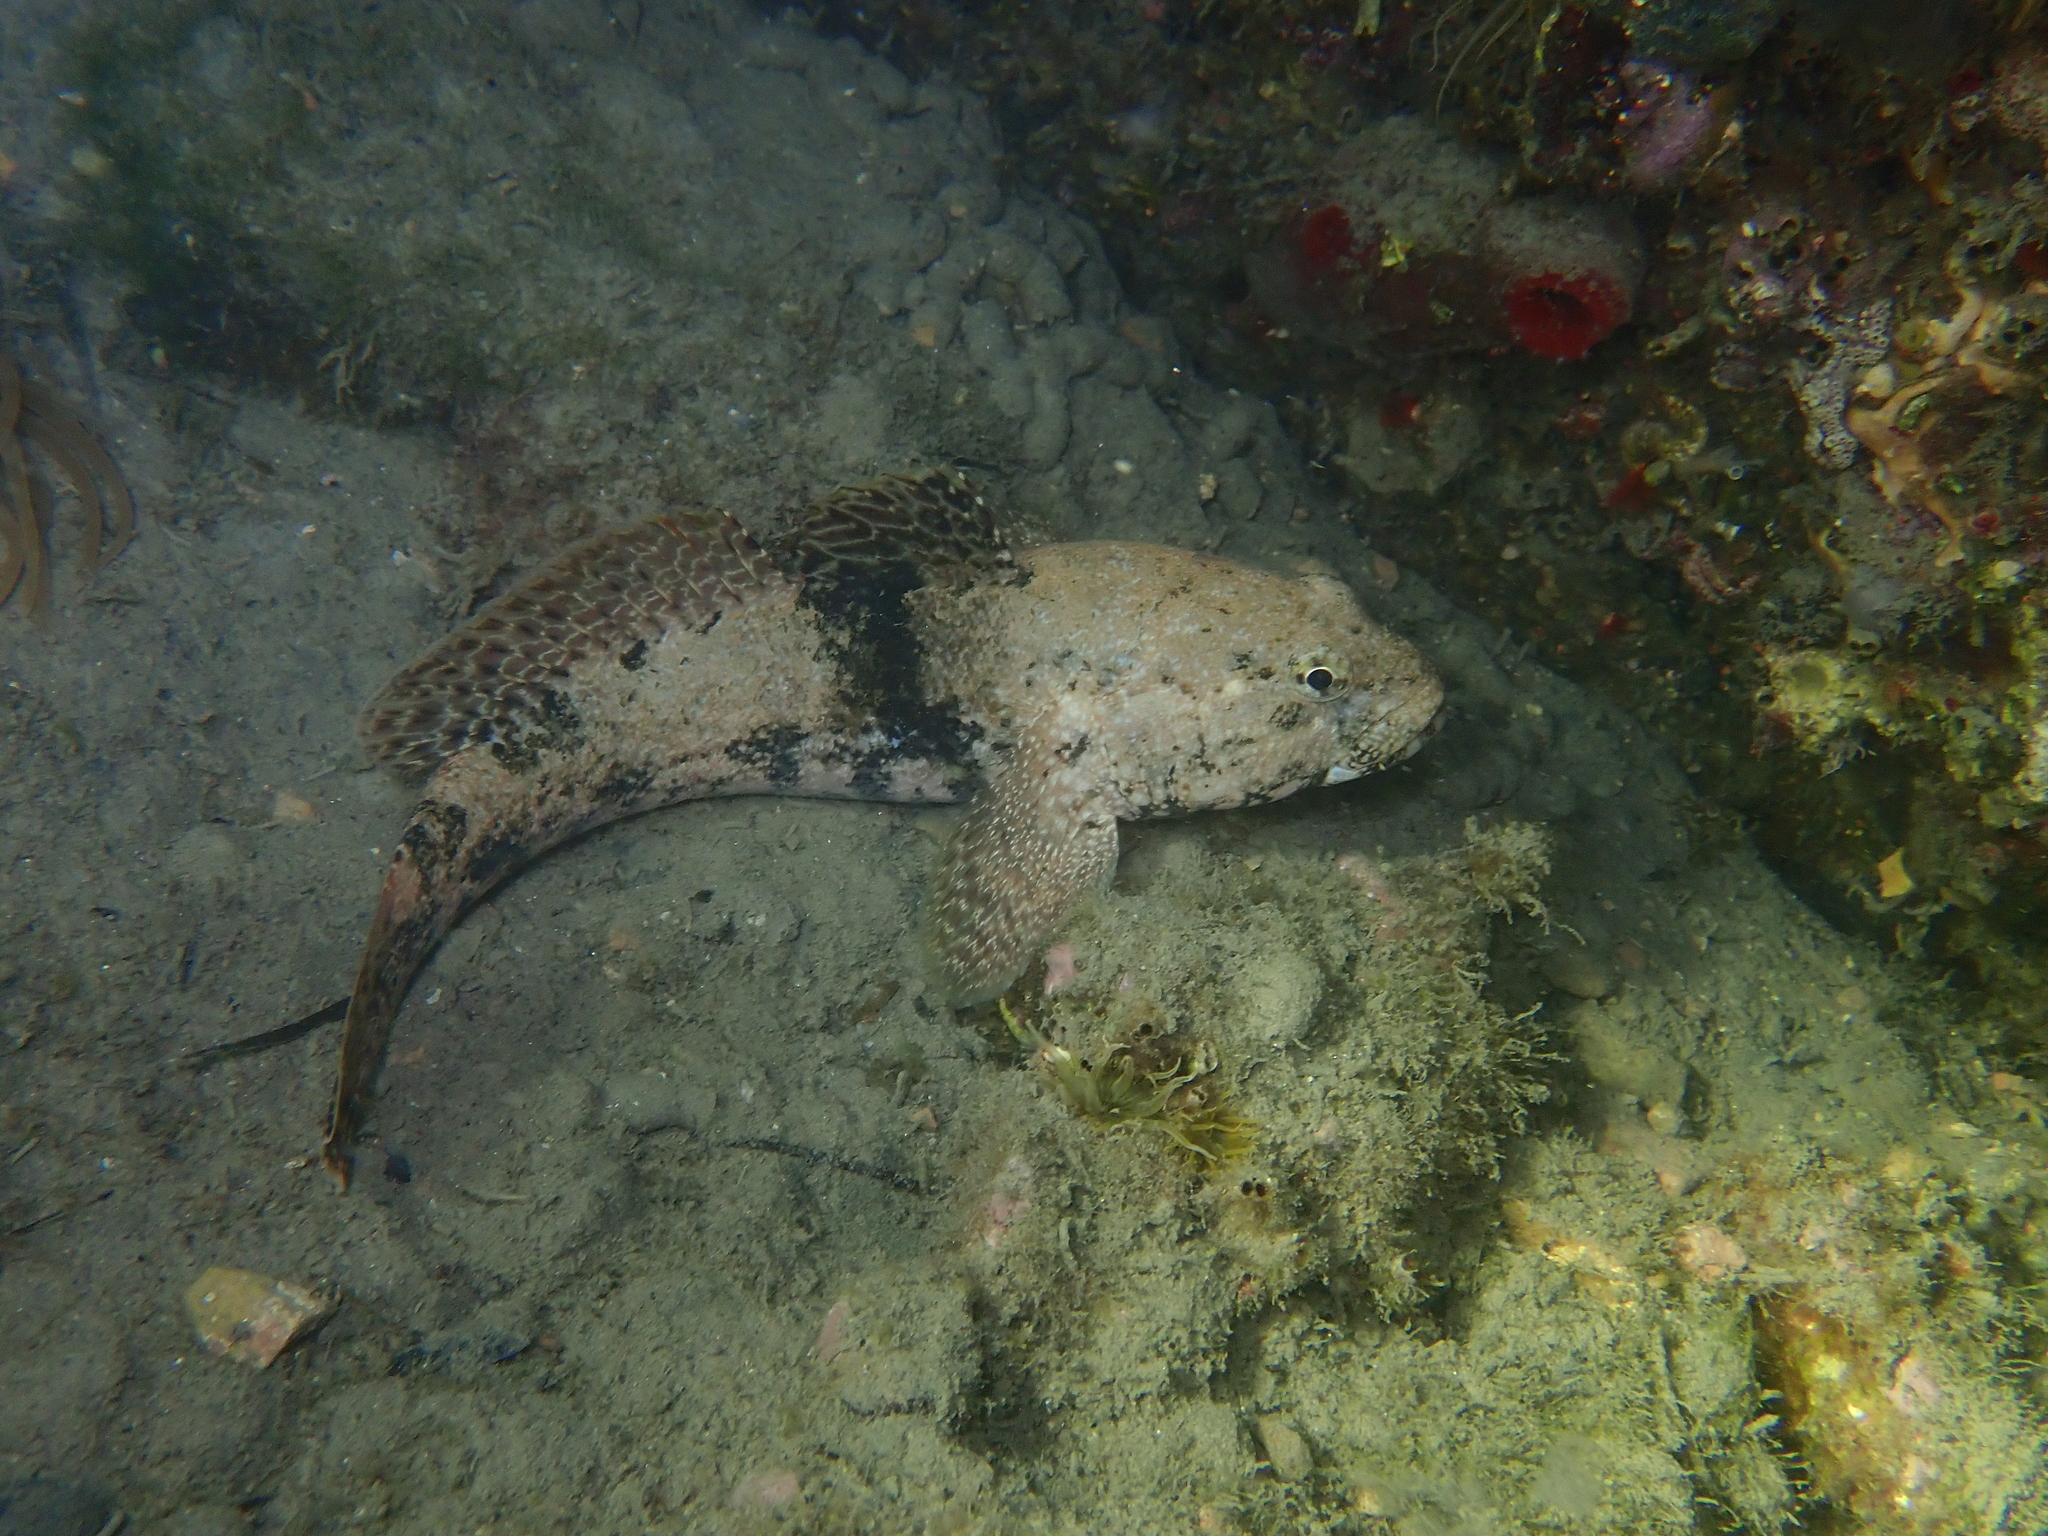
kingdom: Animalia
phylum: Chordata
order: Perciformes
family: Gobiidae
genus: Gobius
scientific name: Gobius cobitis
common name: Giant goby
